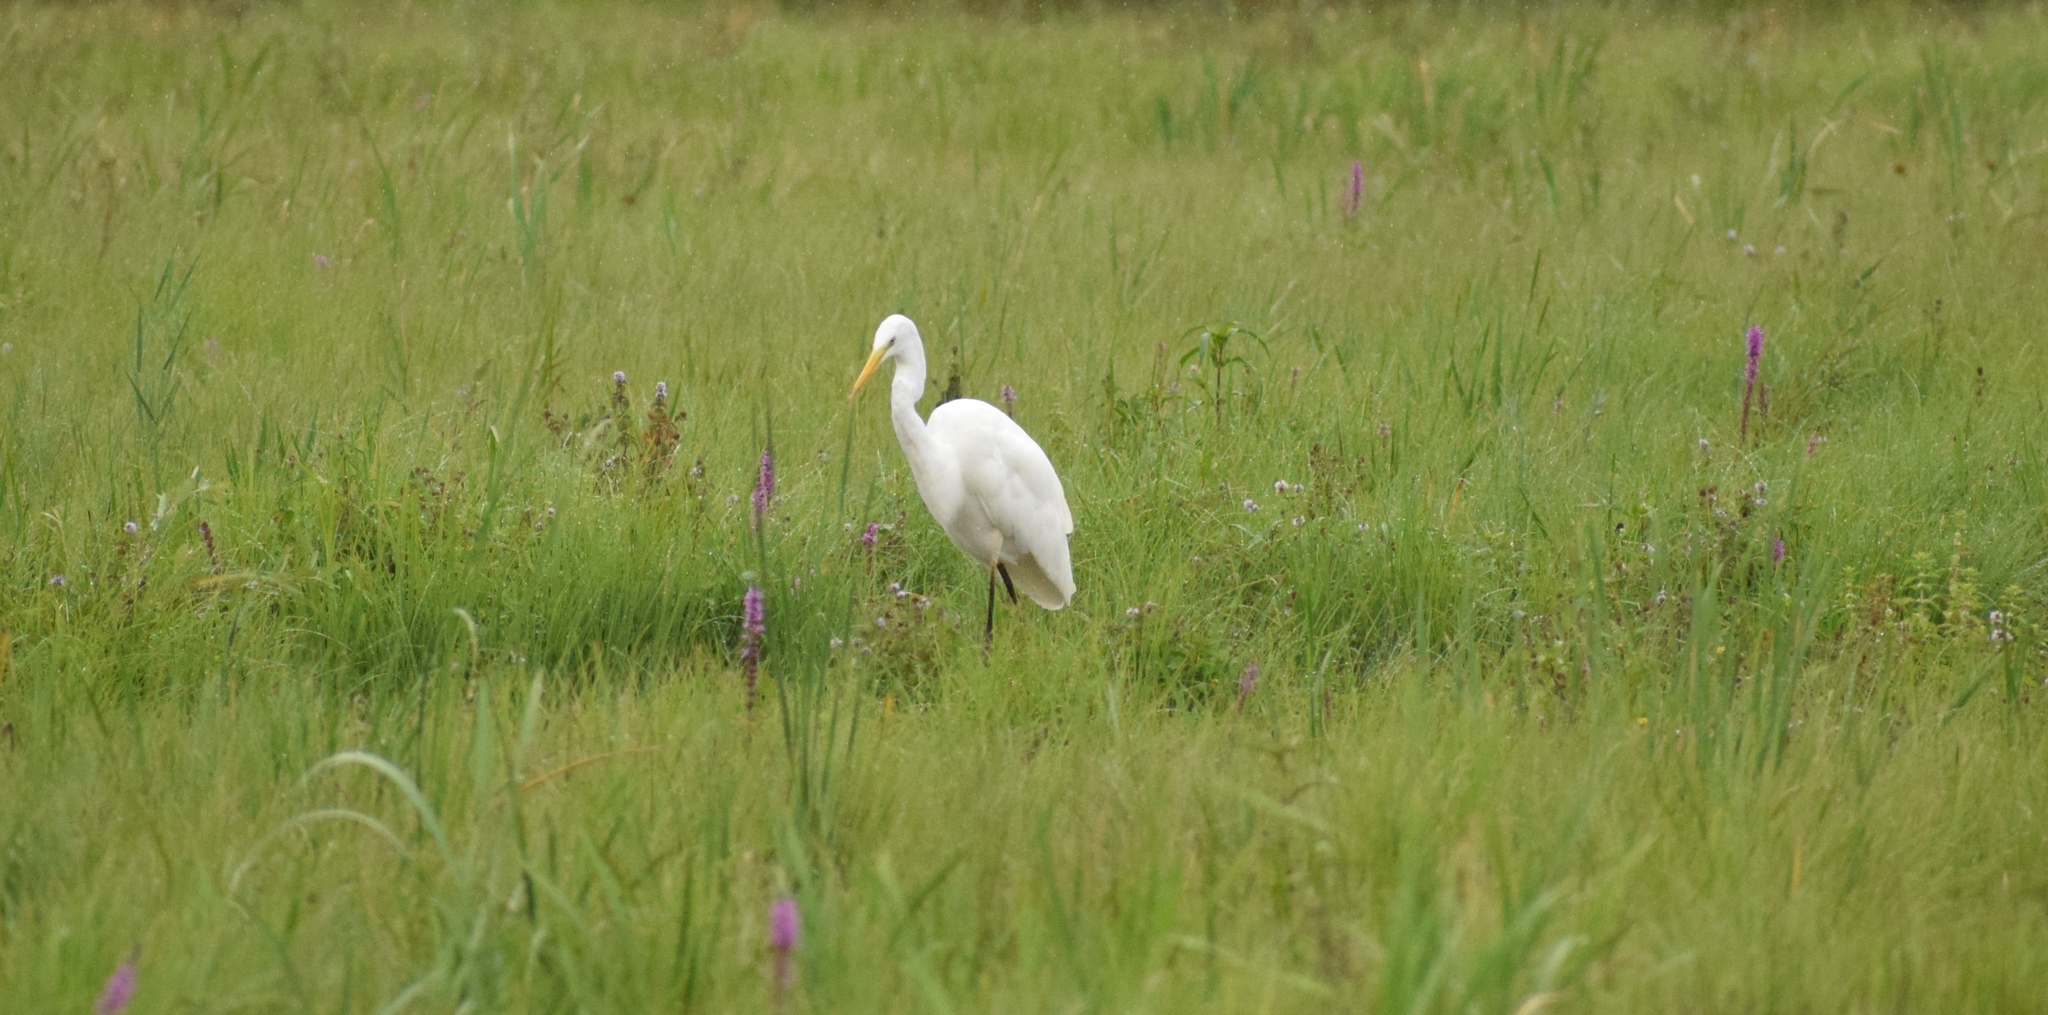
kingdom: Animalia
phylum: Chordata
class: Aves
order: Pelecaniformes
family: Ardeidae
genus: Ardea
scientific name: Ardea alba
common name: Great egret
